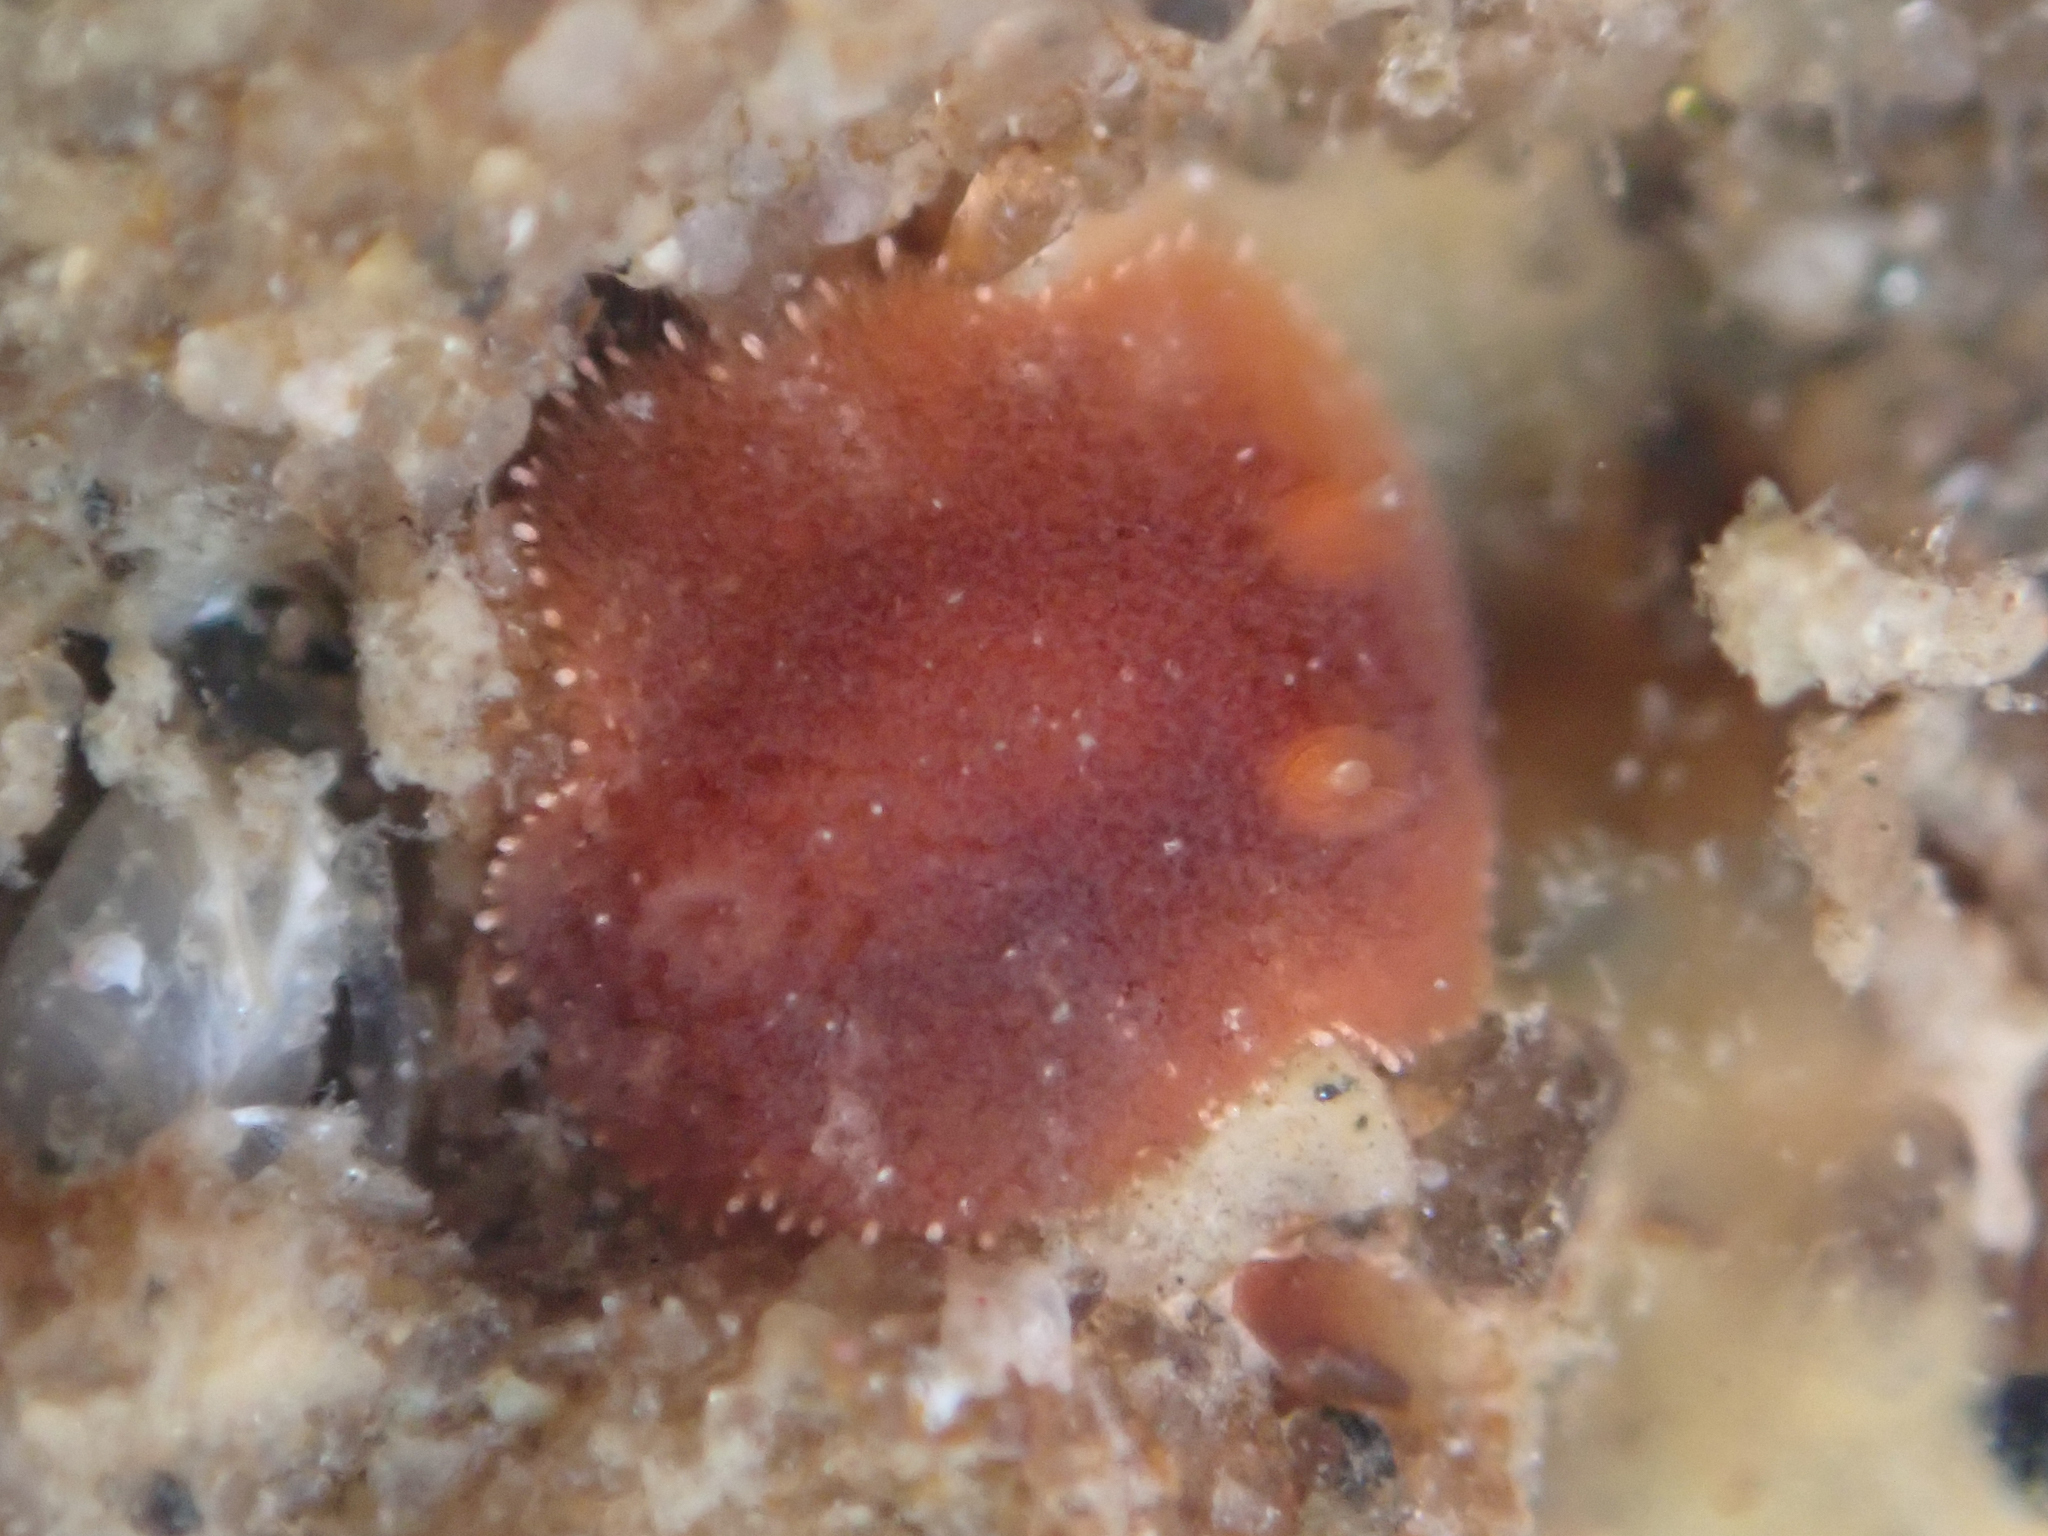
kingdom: Animalia
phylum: Mollusca
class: Gastropoda
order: Nudibranchia
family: Discodorididae
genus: Rostanga
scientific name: Rostanga pulchra
